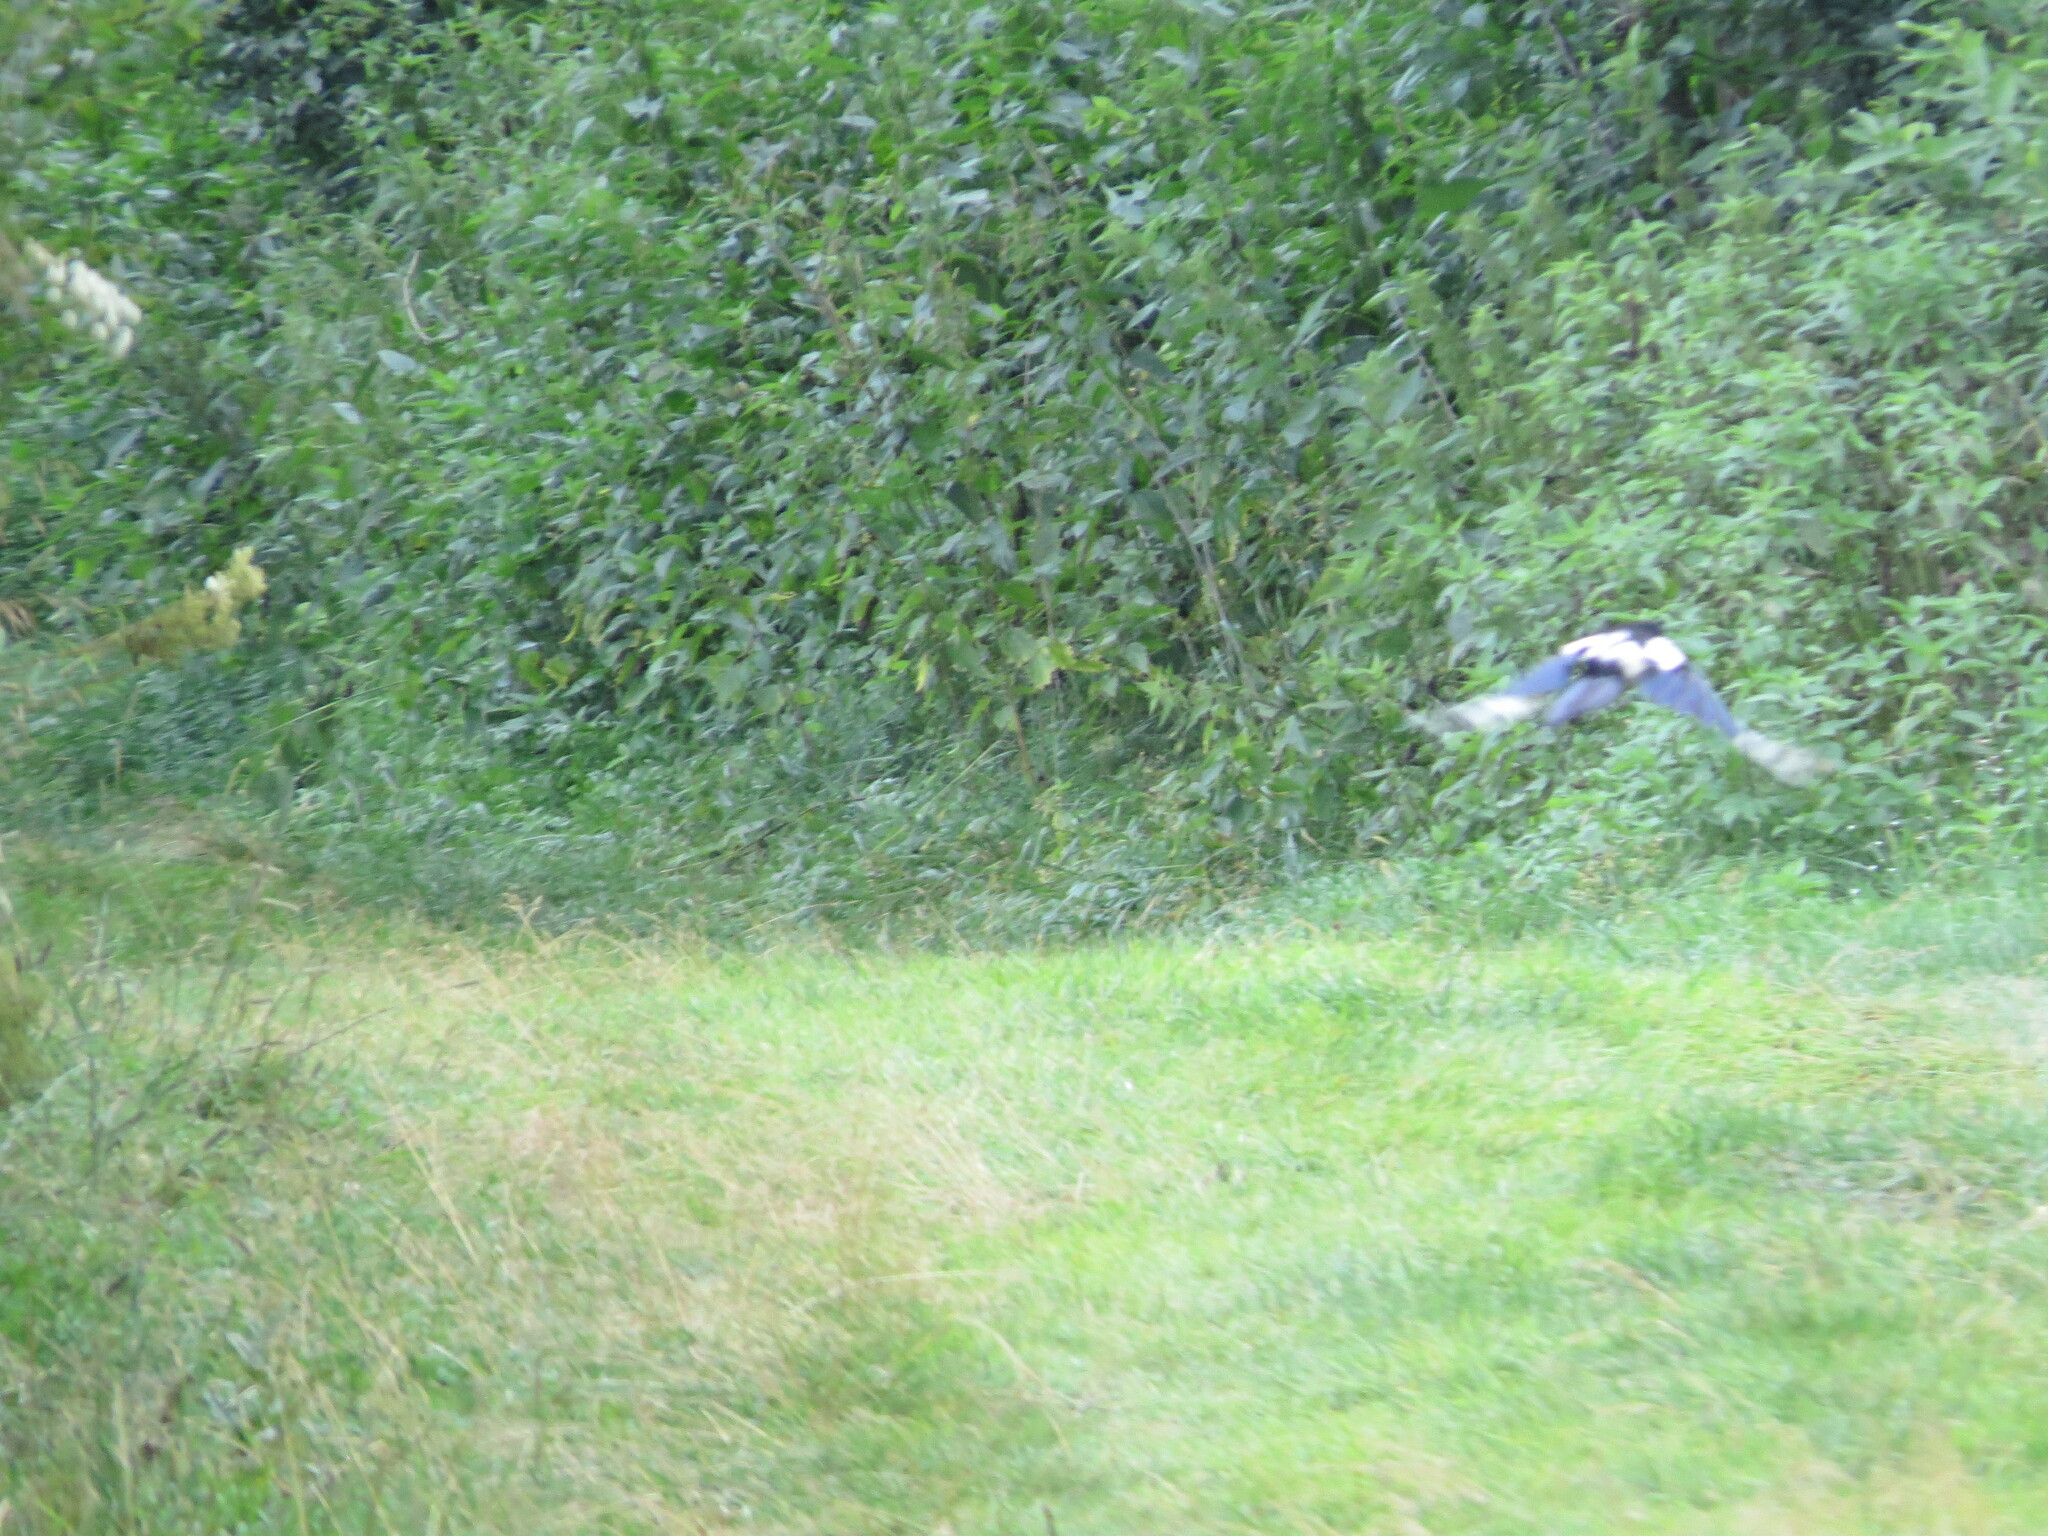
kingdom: Animalia
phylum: Chordata
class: Aves
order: Passeriformes
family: Corvidae
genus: Pica
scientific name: Pica pica
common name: Eurasian magpie
